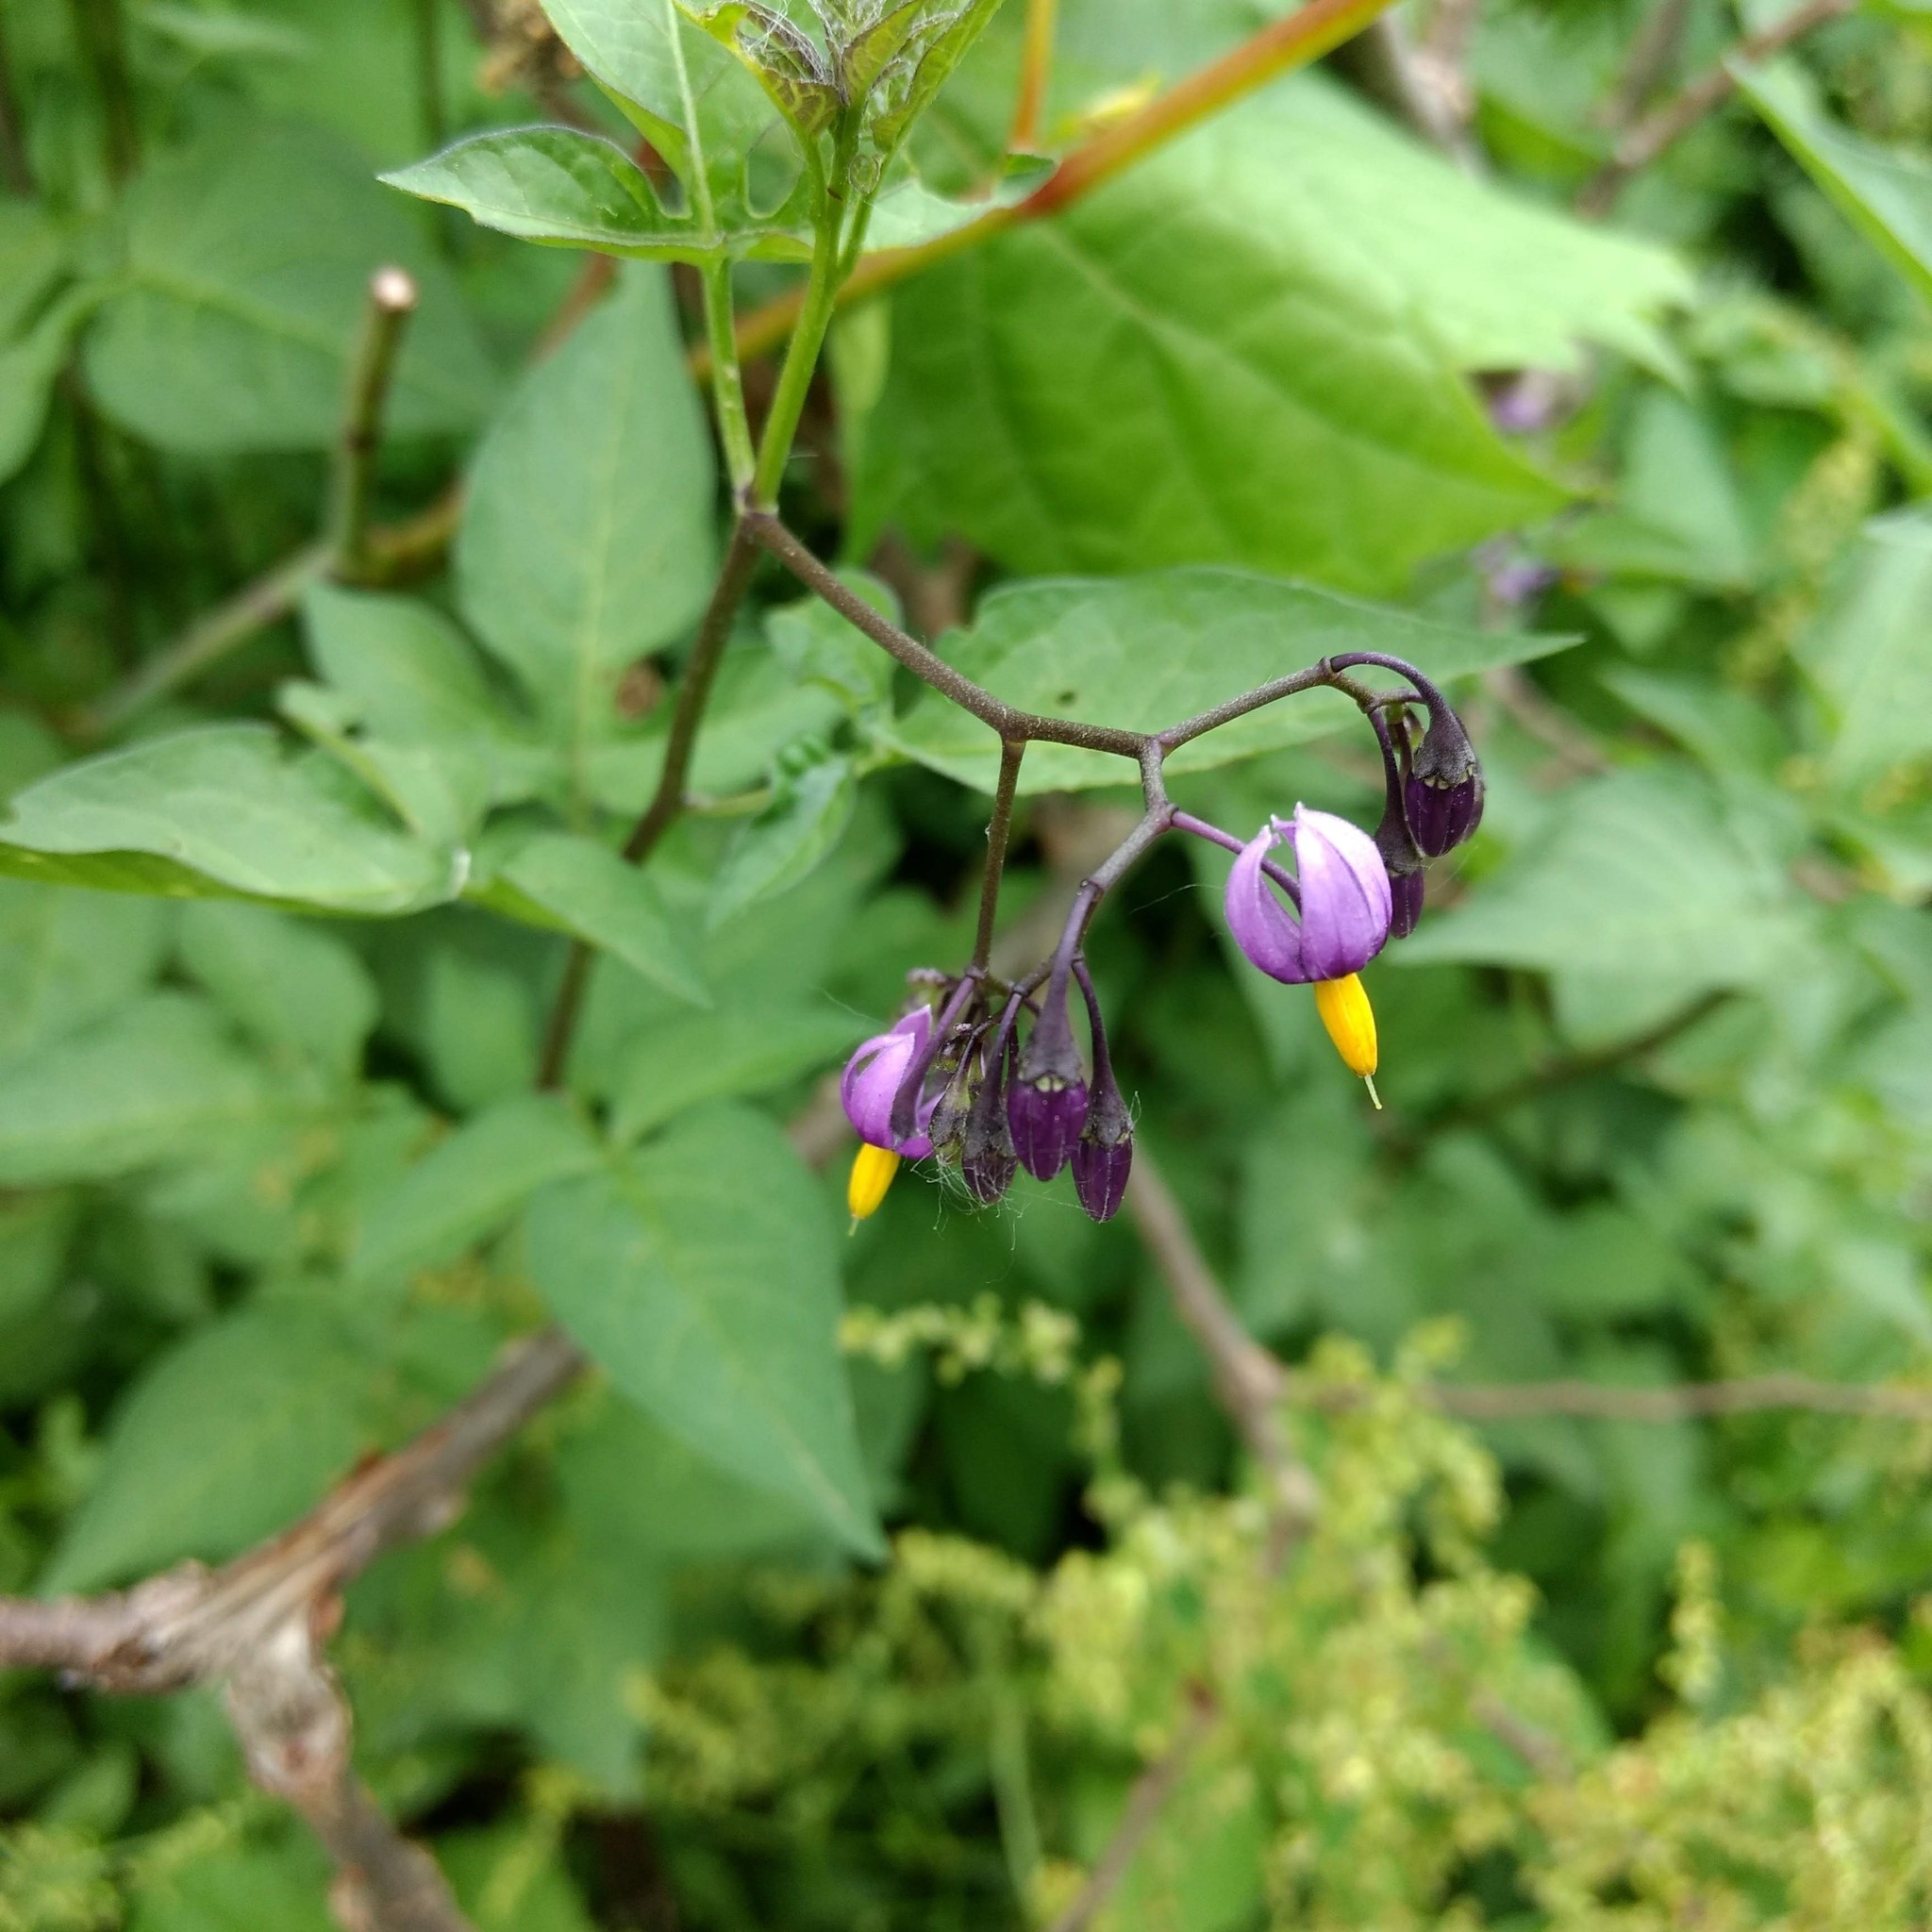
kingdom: Plantae
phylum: Tracheophyta
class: Magnoliopsida
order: Solanales
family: Solanaceae
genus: Solanum
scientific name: Solanum dulcamara
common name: Climbing nightshade
